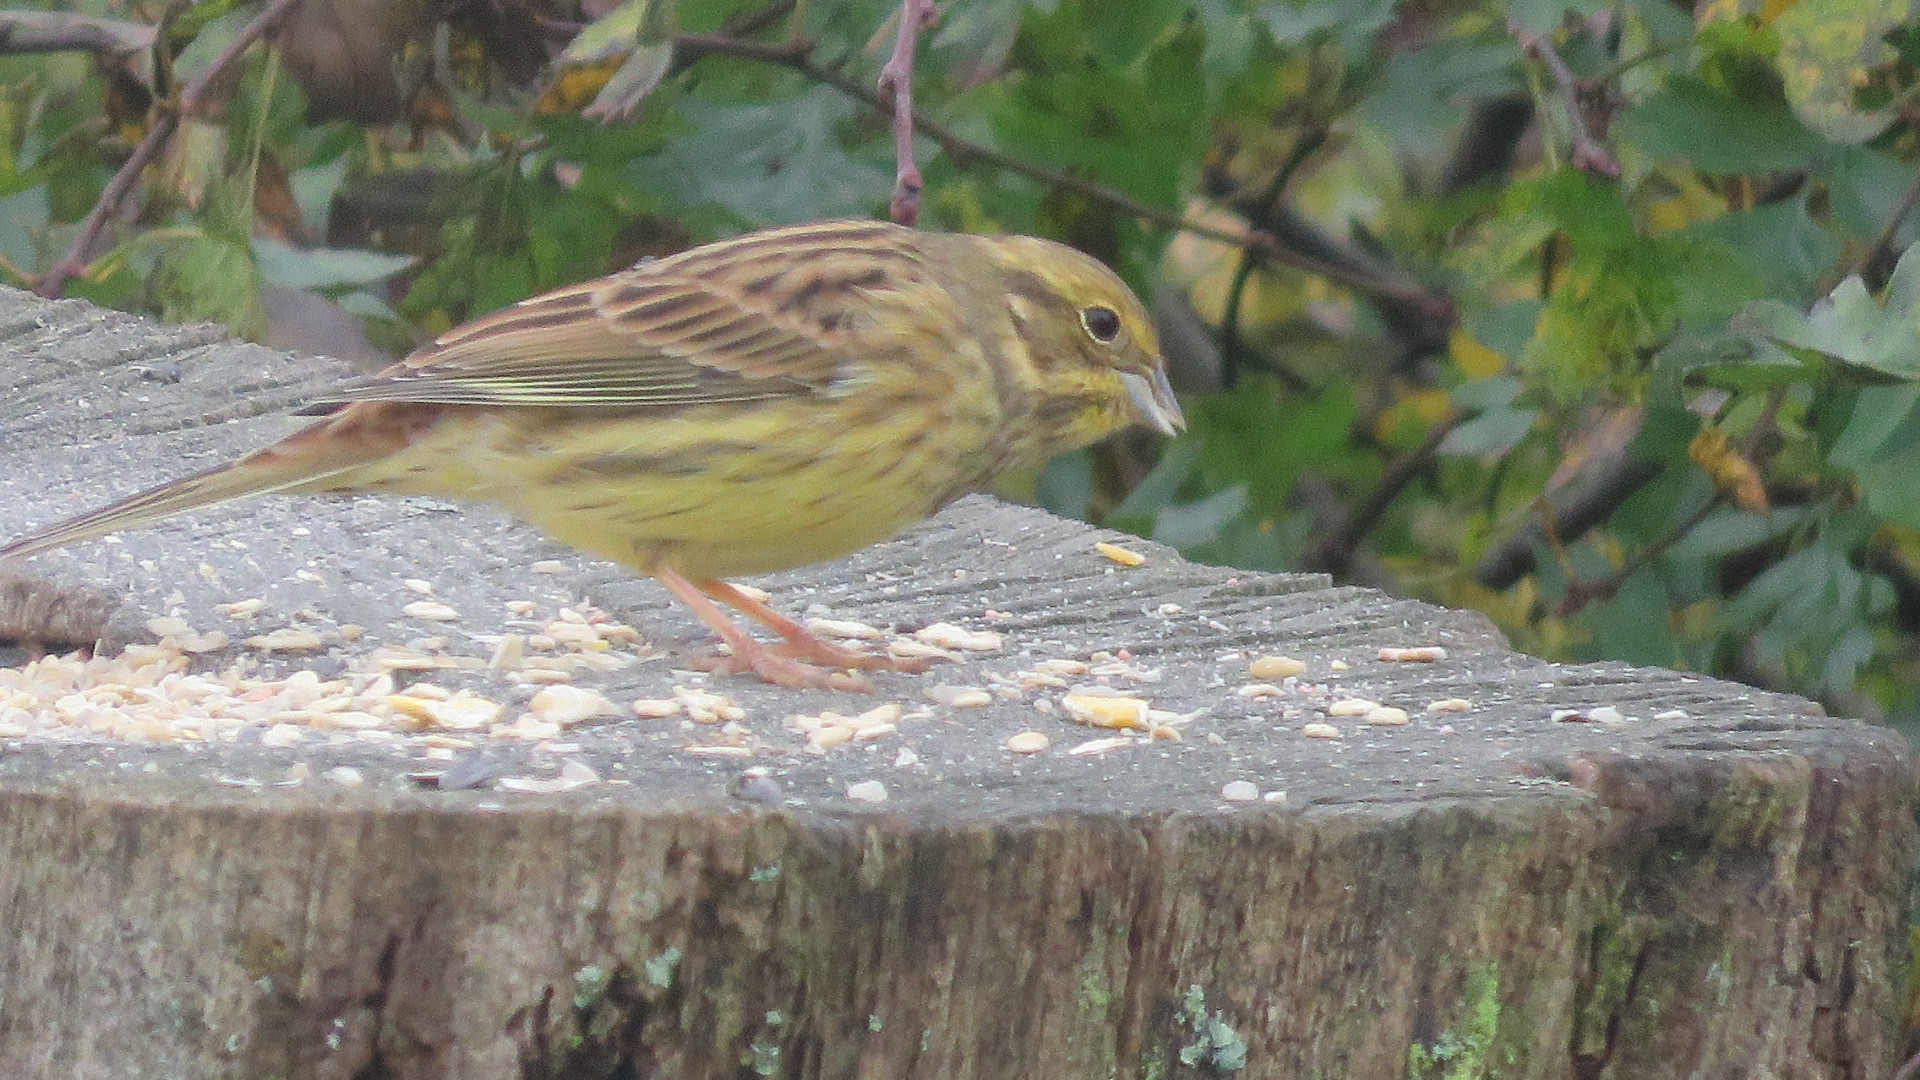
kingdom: Animalia
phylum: Chordata
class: Aves
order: Passeriformes
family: Emberizidae
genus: Emberiza
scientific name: Emberiza citrinella
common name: Yellowhammer
